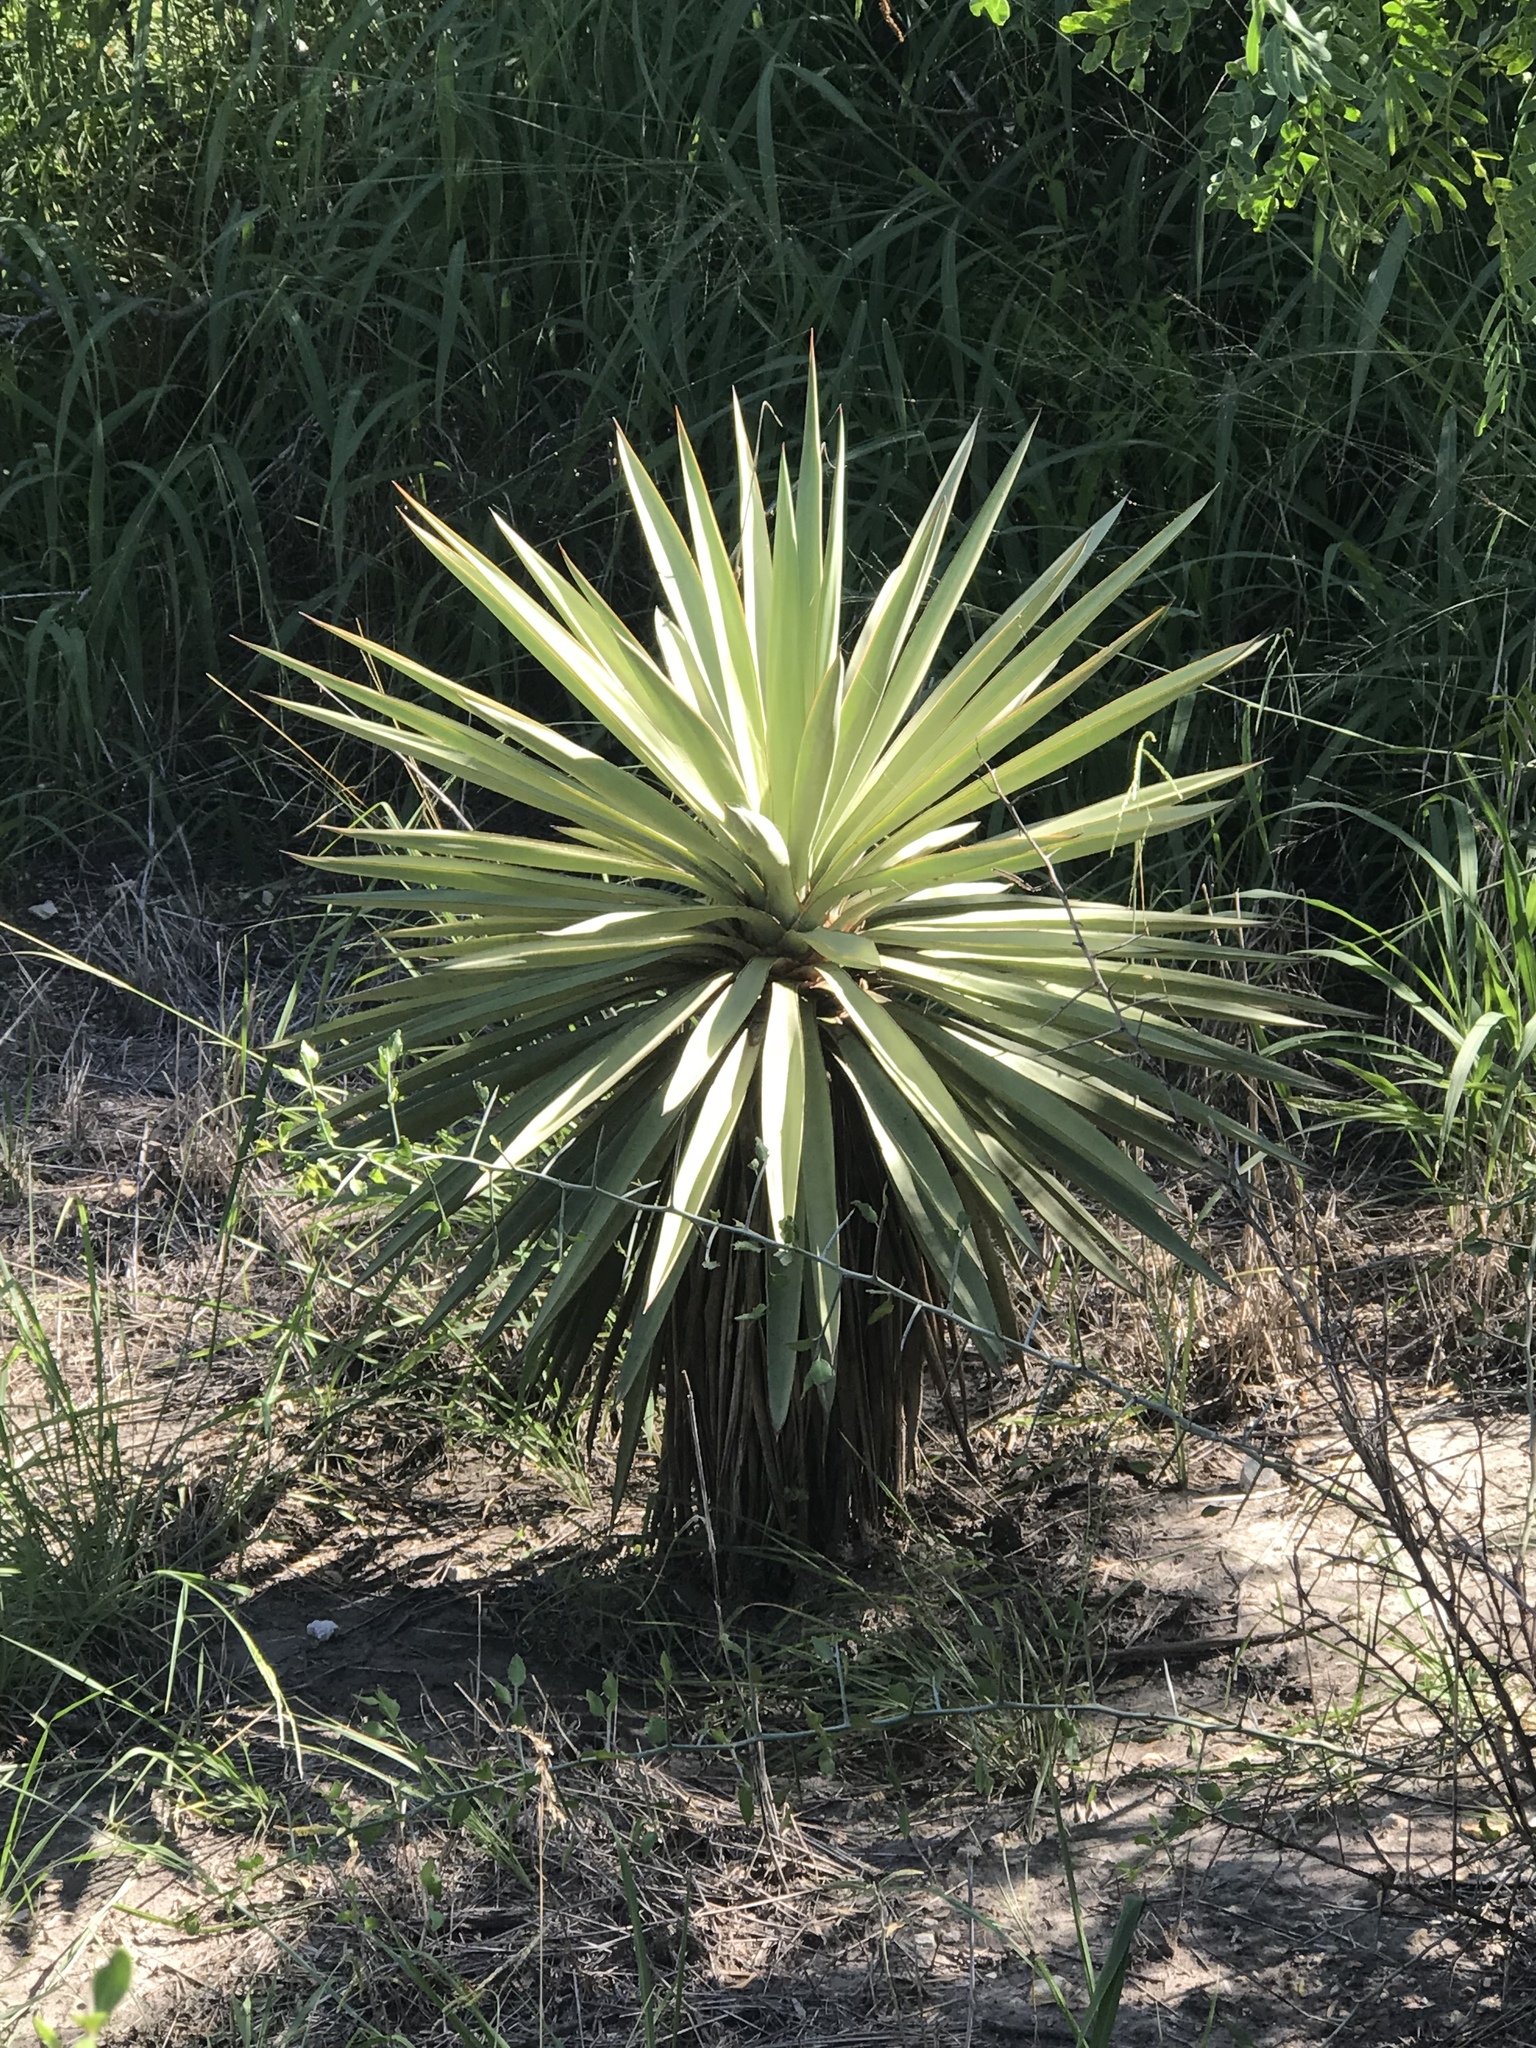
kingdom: Plantae
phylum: Tracheophyta
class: Liliopsida
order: Asparagales
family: Asparagaceae
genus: Yucca
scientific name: Yucca treculiana
